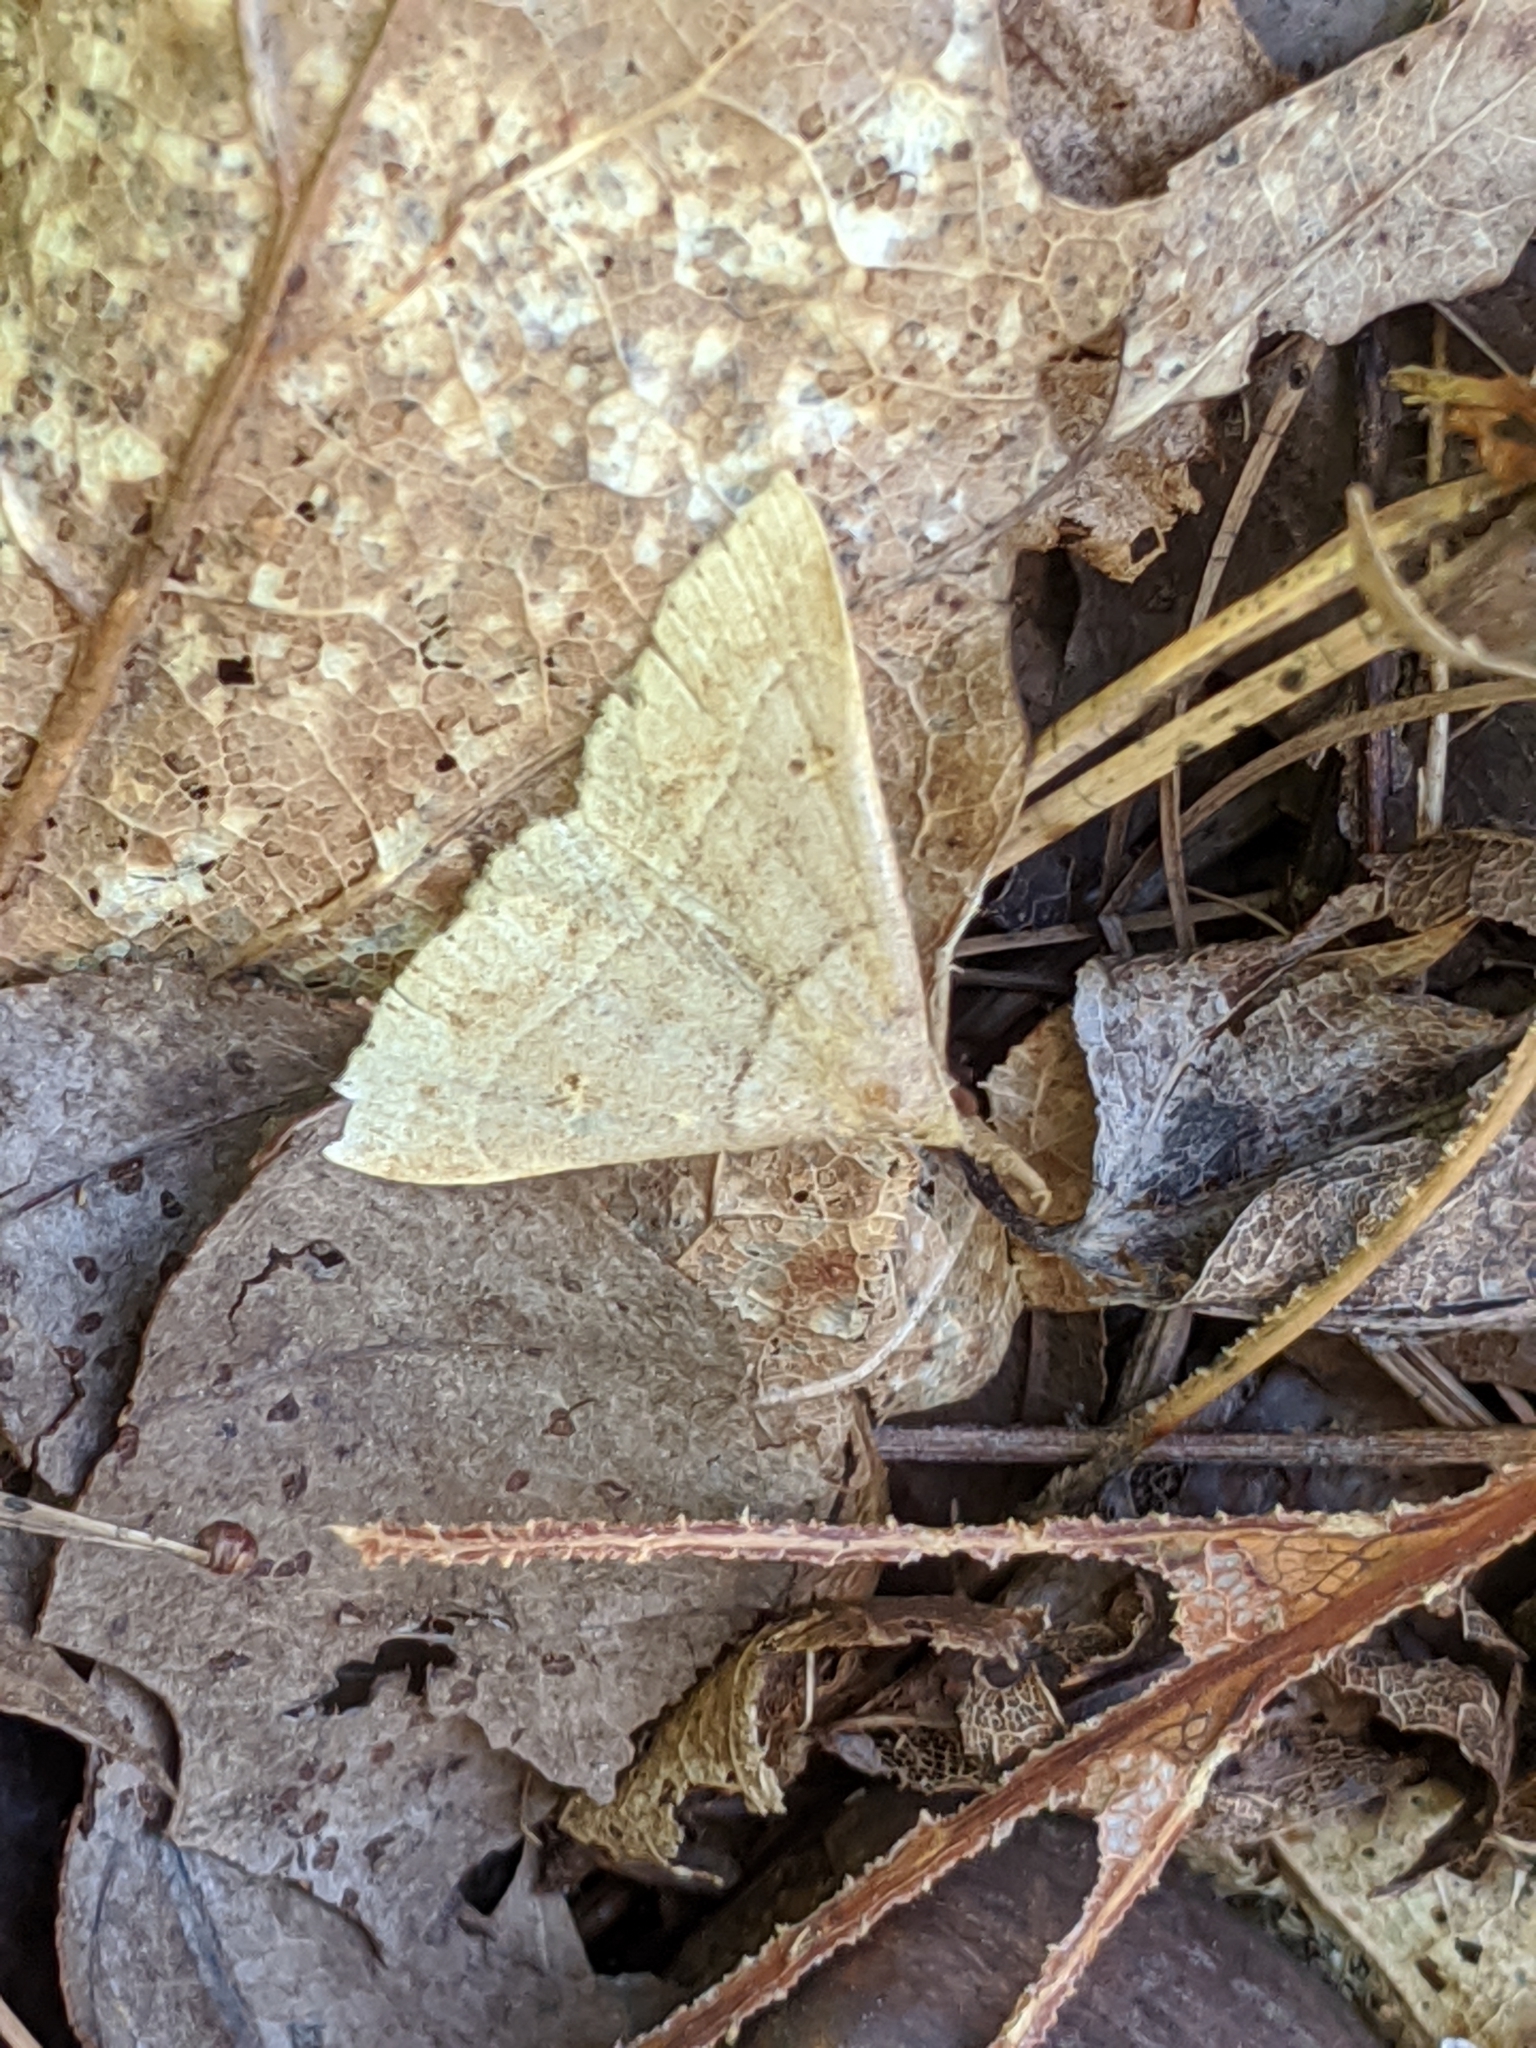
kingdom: Animalia
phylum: Arthropoda
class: Insecta
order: Lepidoptera
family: Erebidae
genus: Renia
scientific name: Renia flavipunctalis
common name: Yellow-spotted renia moth
